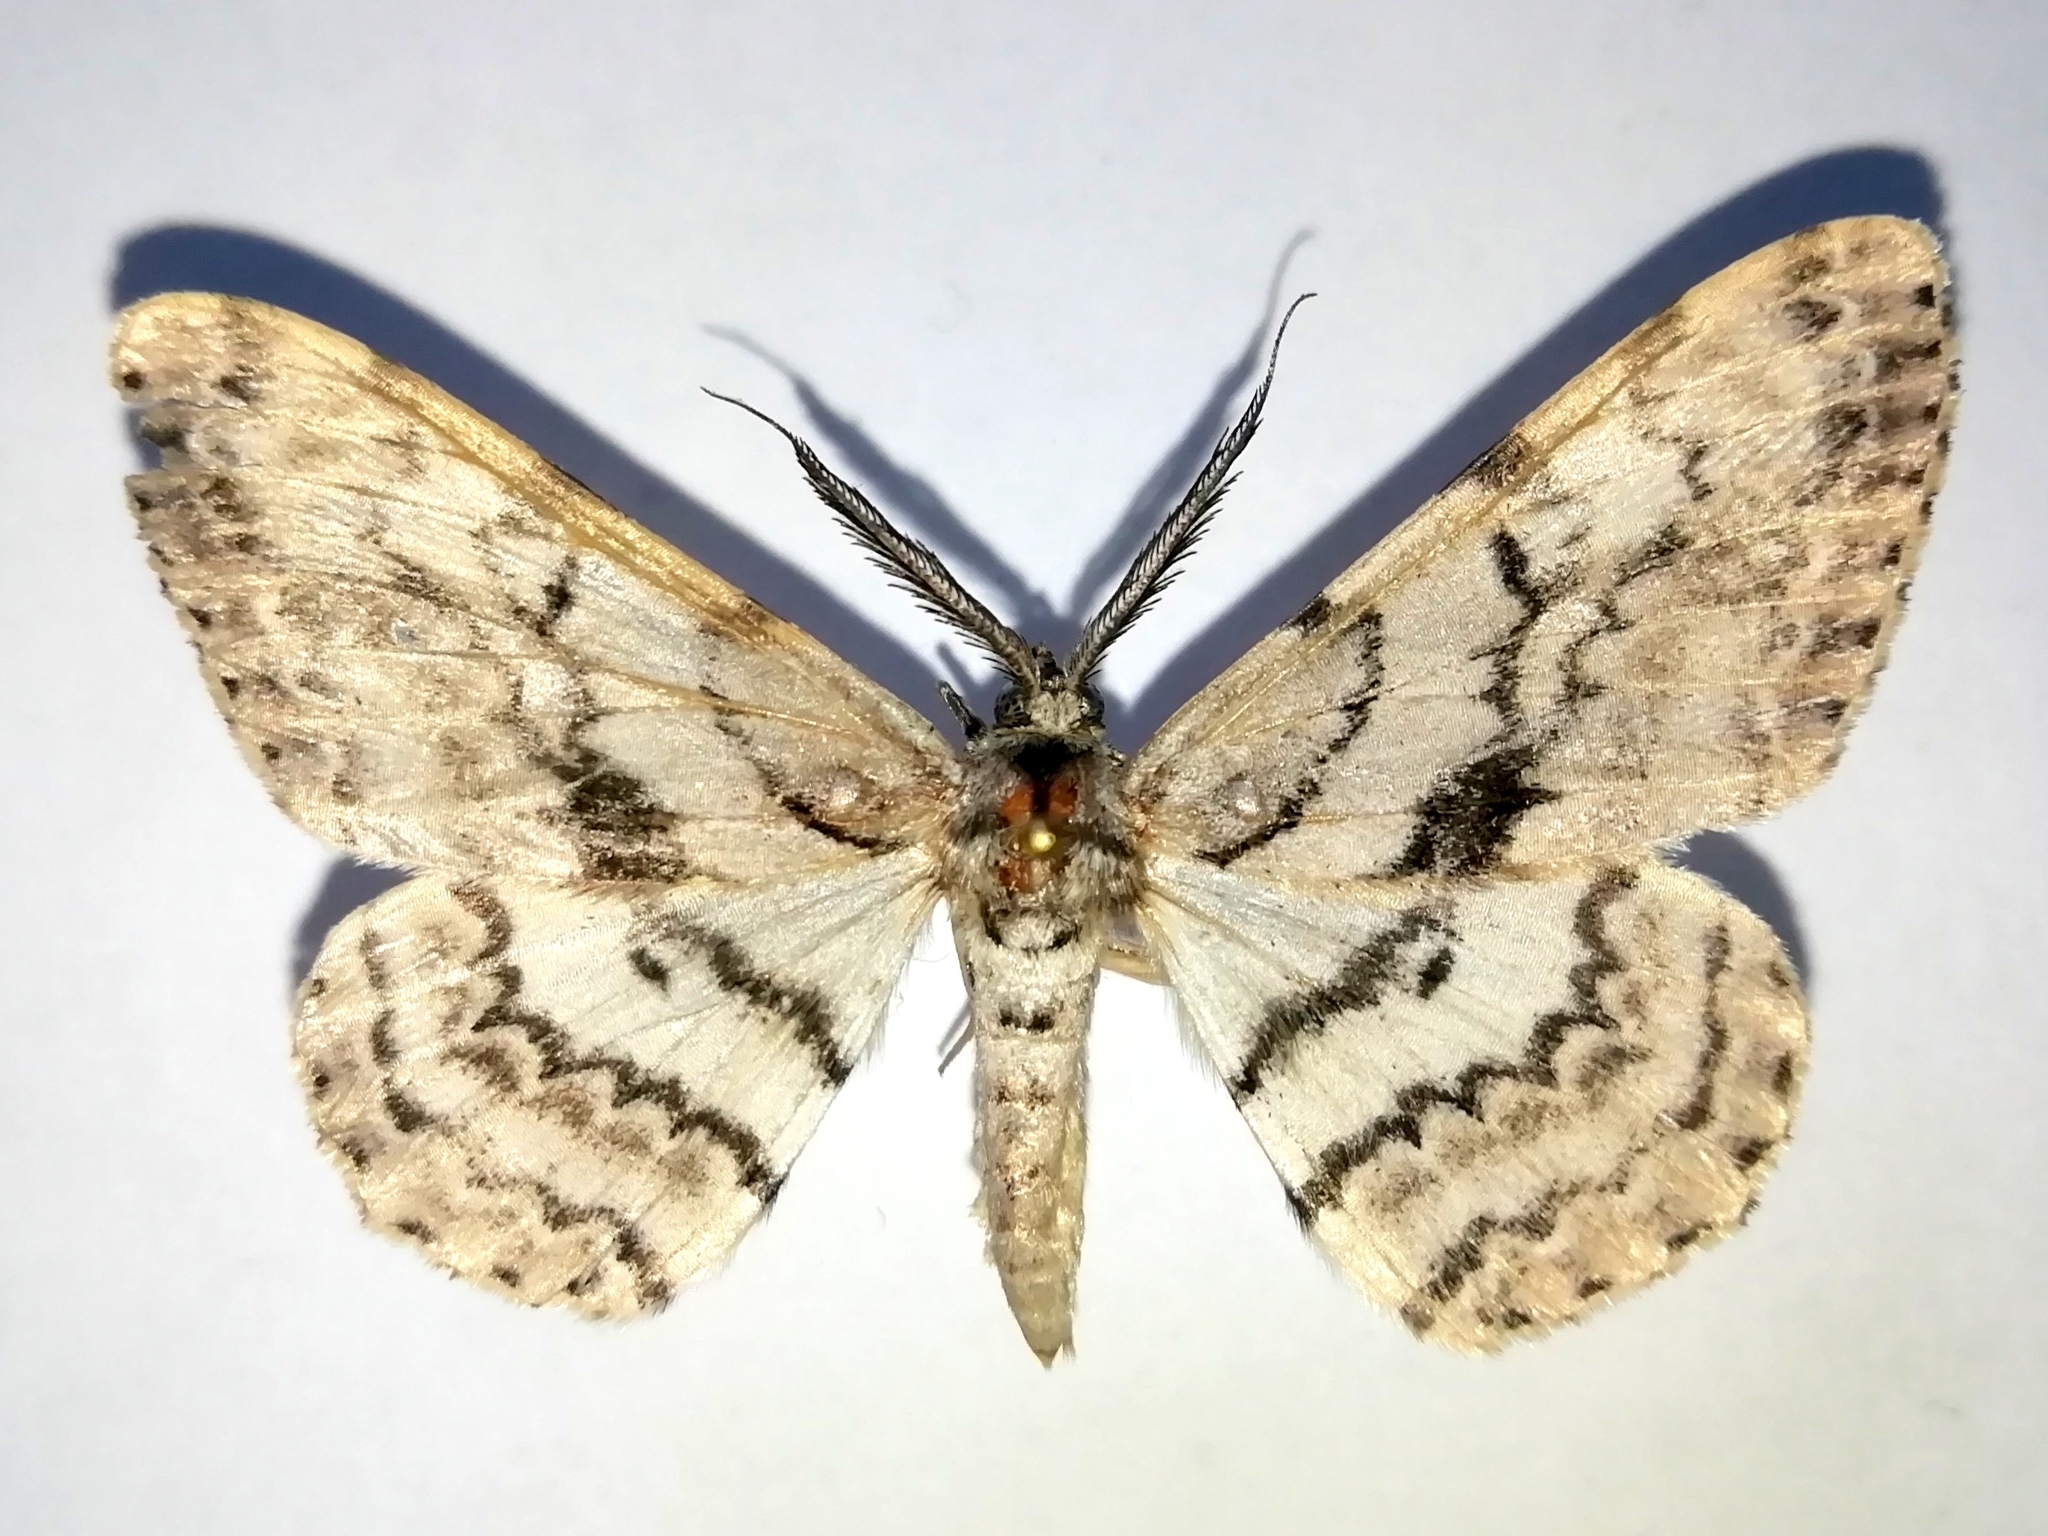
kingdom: Animalia
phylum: Arthropoda
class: Insecta
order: Lepidoptera
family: Geometridae
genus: Hypomecis
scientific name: Hypomecis roboraria
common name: Great oak beauty
